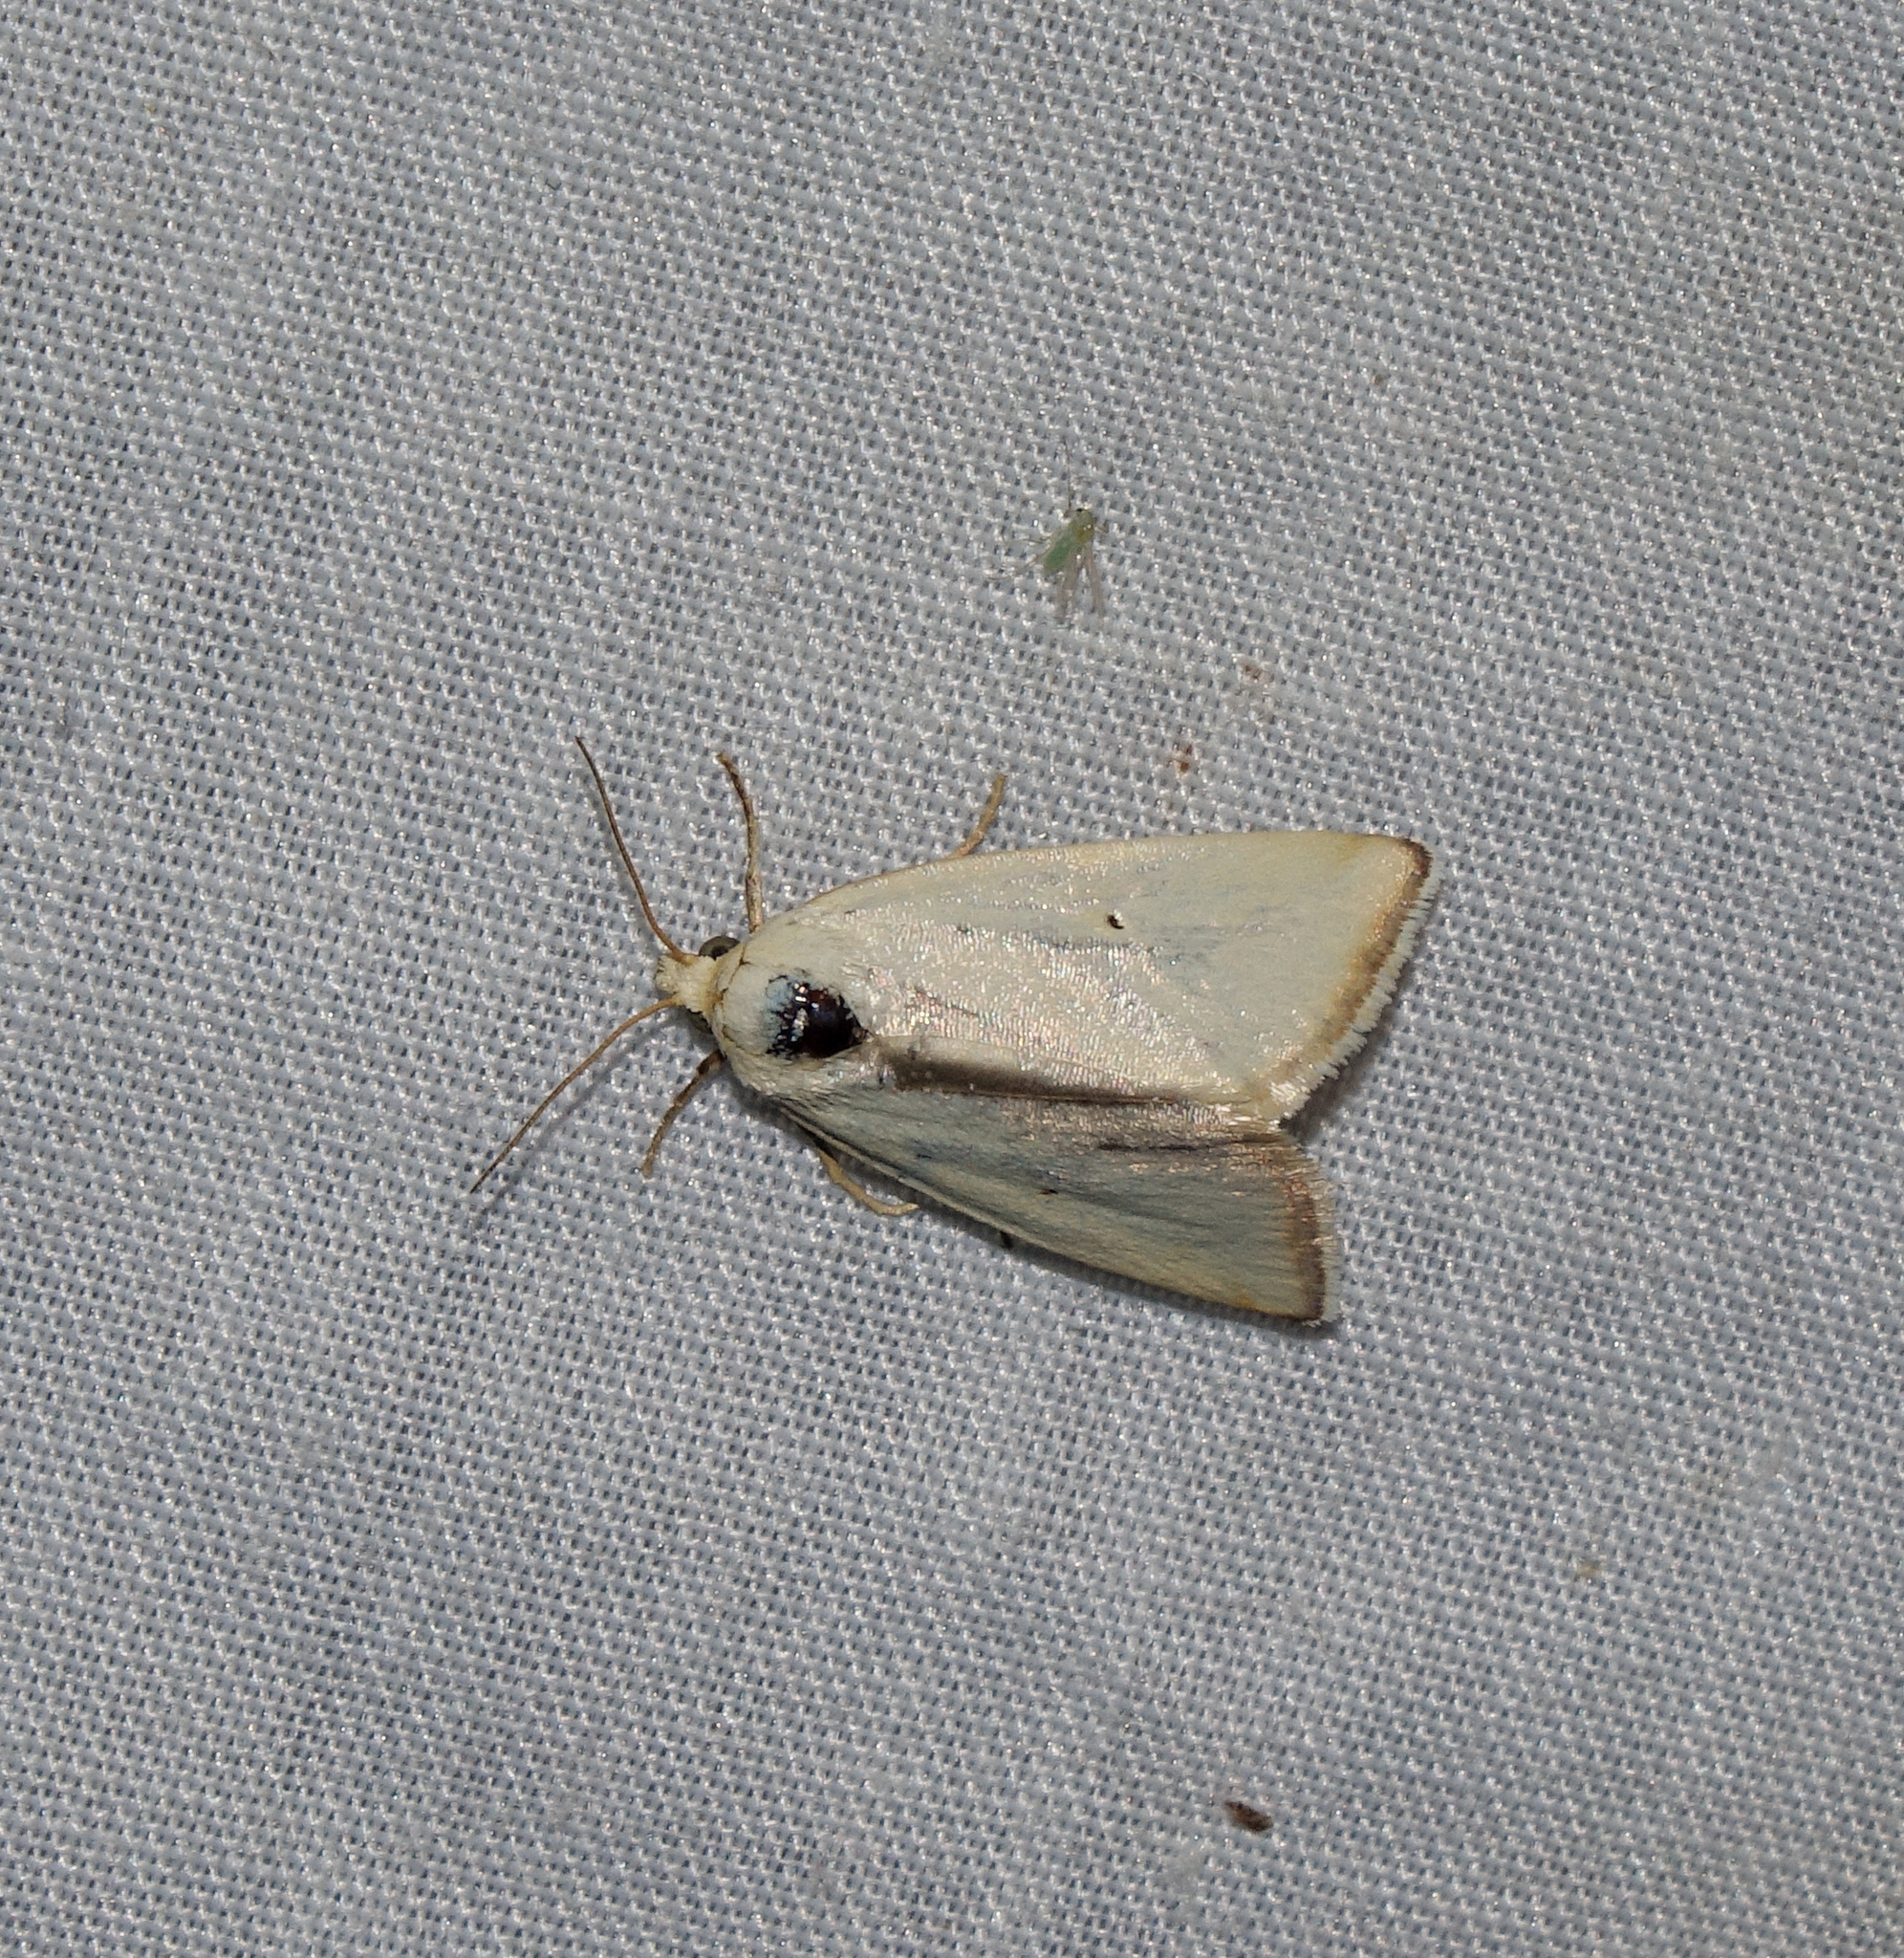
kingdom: Animalia
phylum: Arthropoda
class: Insecta
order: Lepidoptera
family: Noctuidae
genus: Aegle
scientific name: Aegle kaekeritziana
